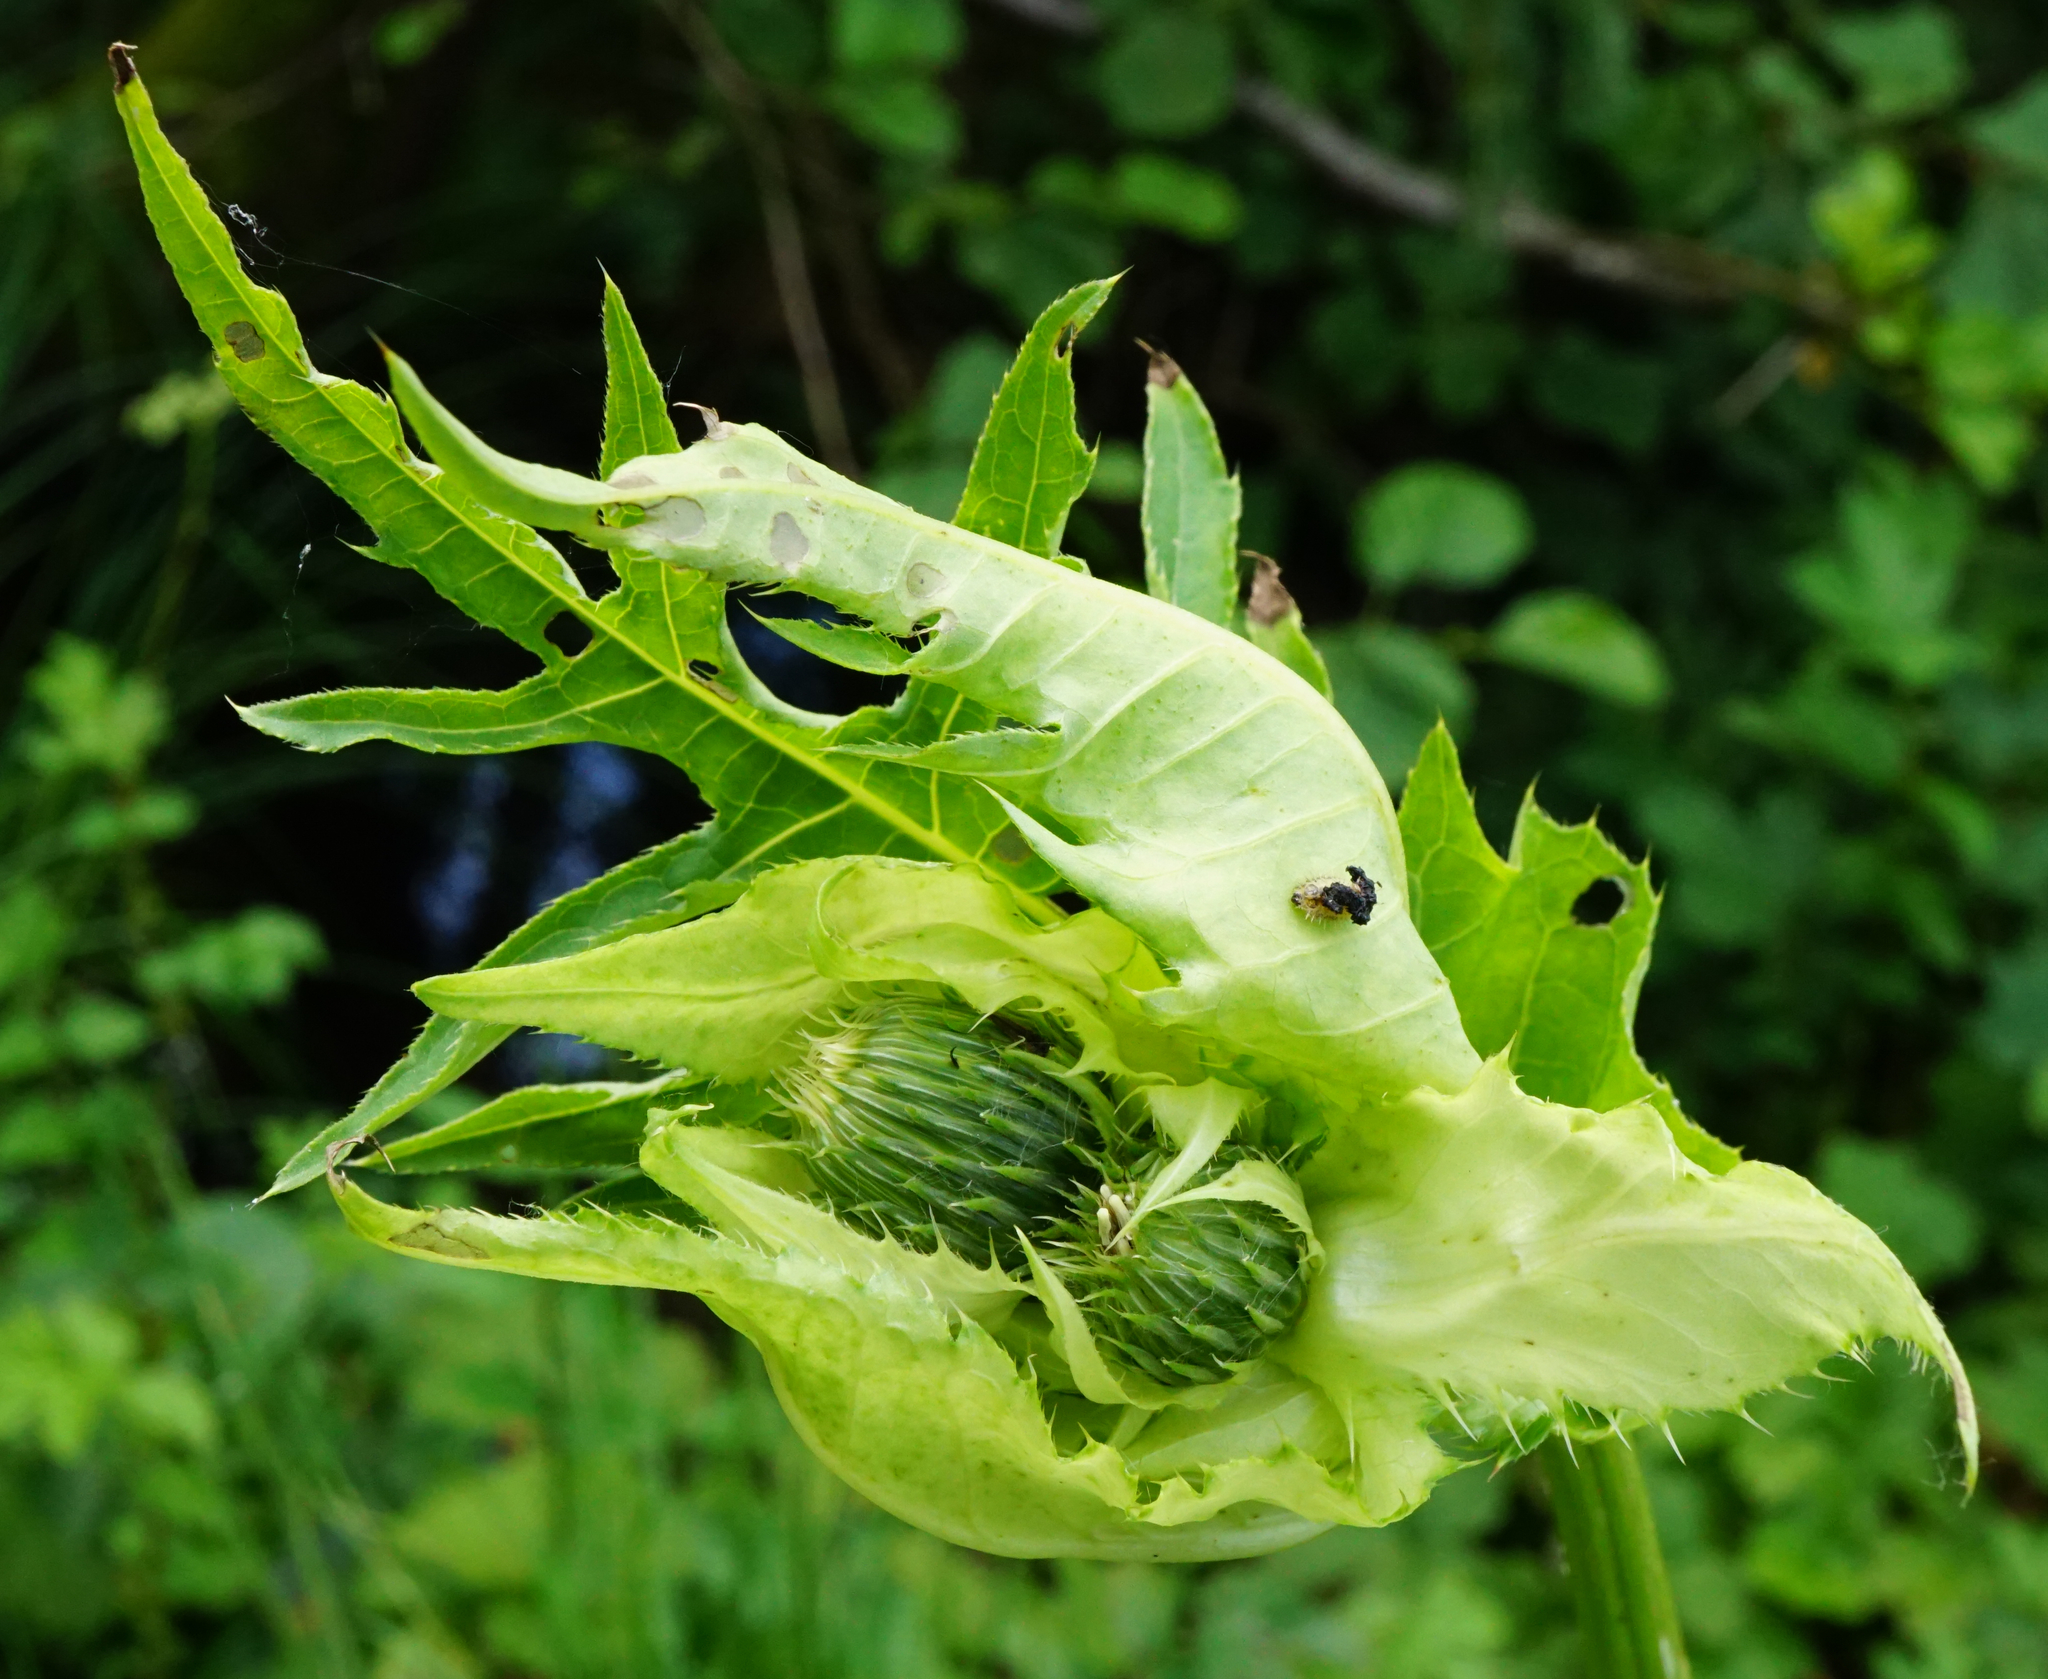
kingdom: Plantae
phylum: Tracheophyta
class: Magnoliopsida
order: Asterales
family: Asteraceae
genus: Cirsium
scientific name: Cirsium oleraceum
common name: Cabbage thistle
